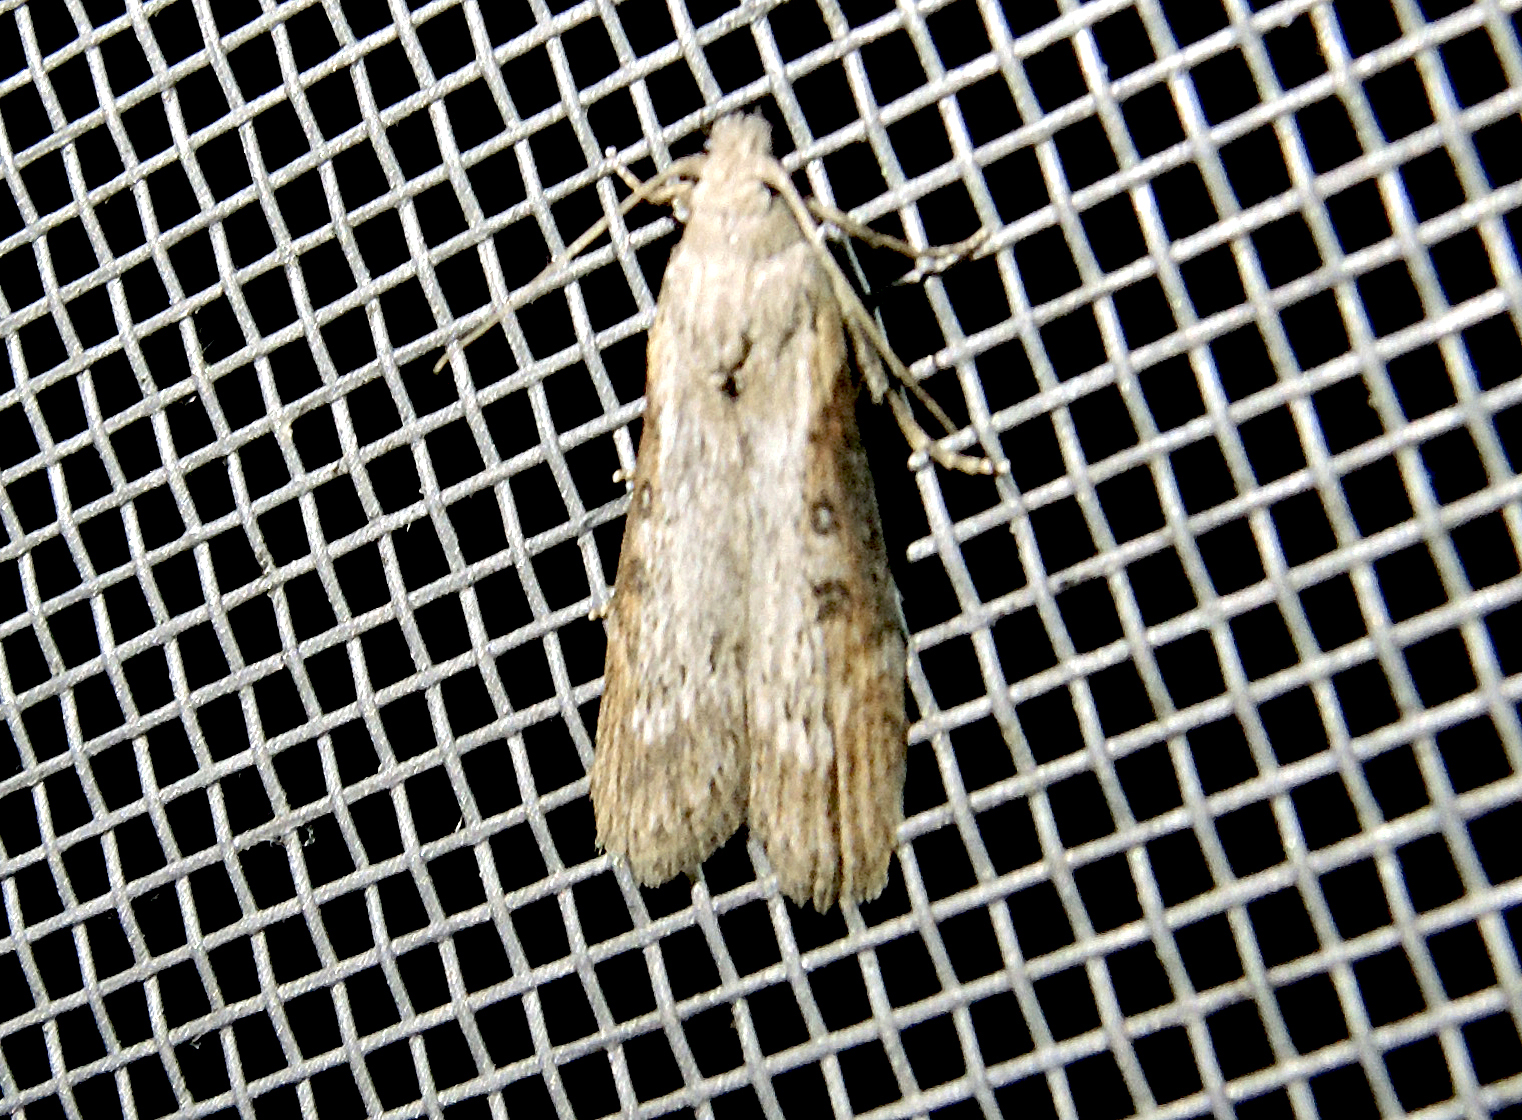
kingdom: Animalia
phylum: Arthropoda
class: Insecta
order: Lepidoptera
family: Pyralidae
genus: Lamoria
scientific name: Lamoria anella
